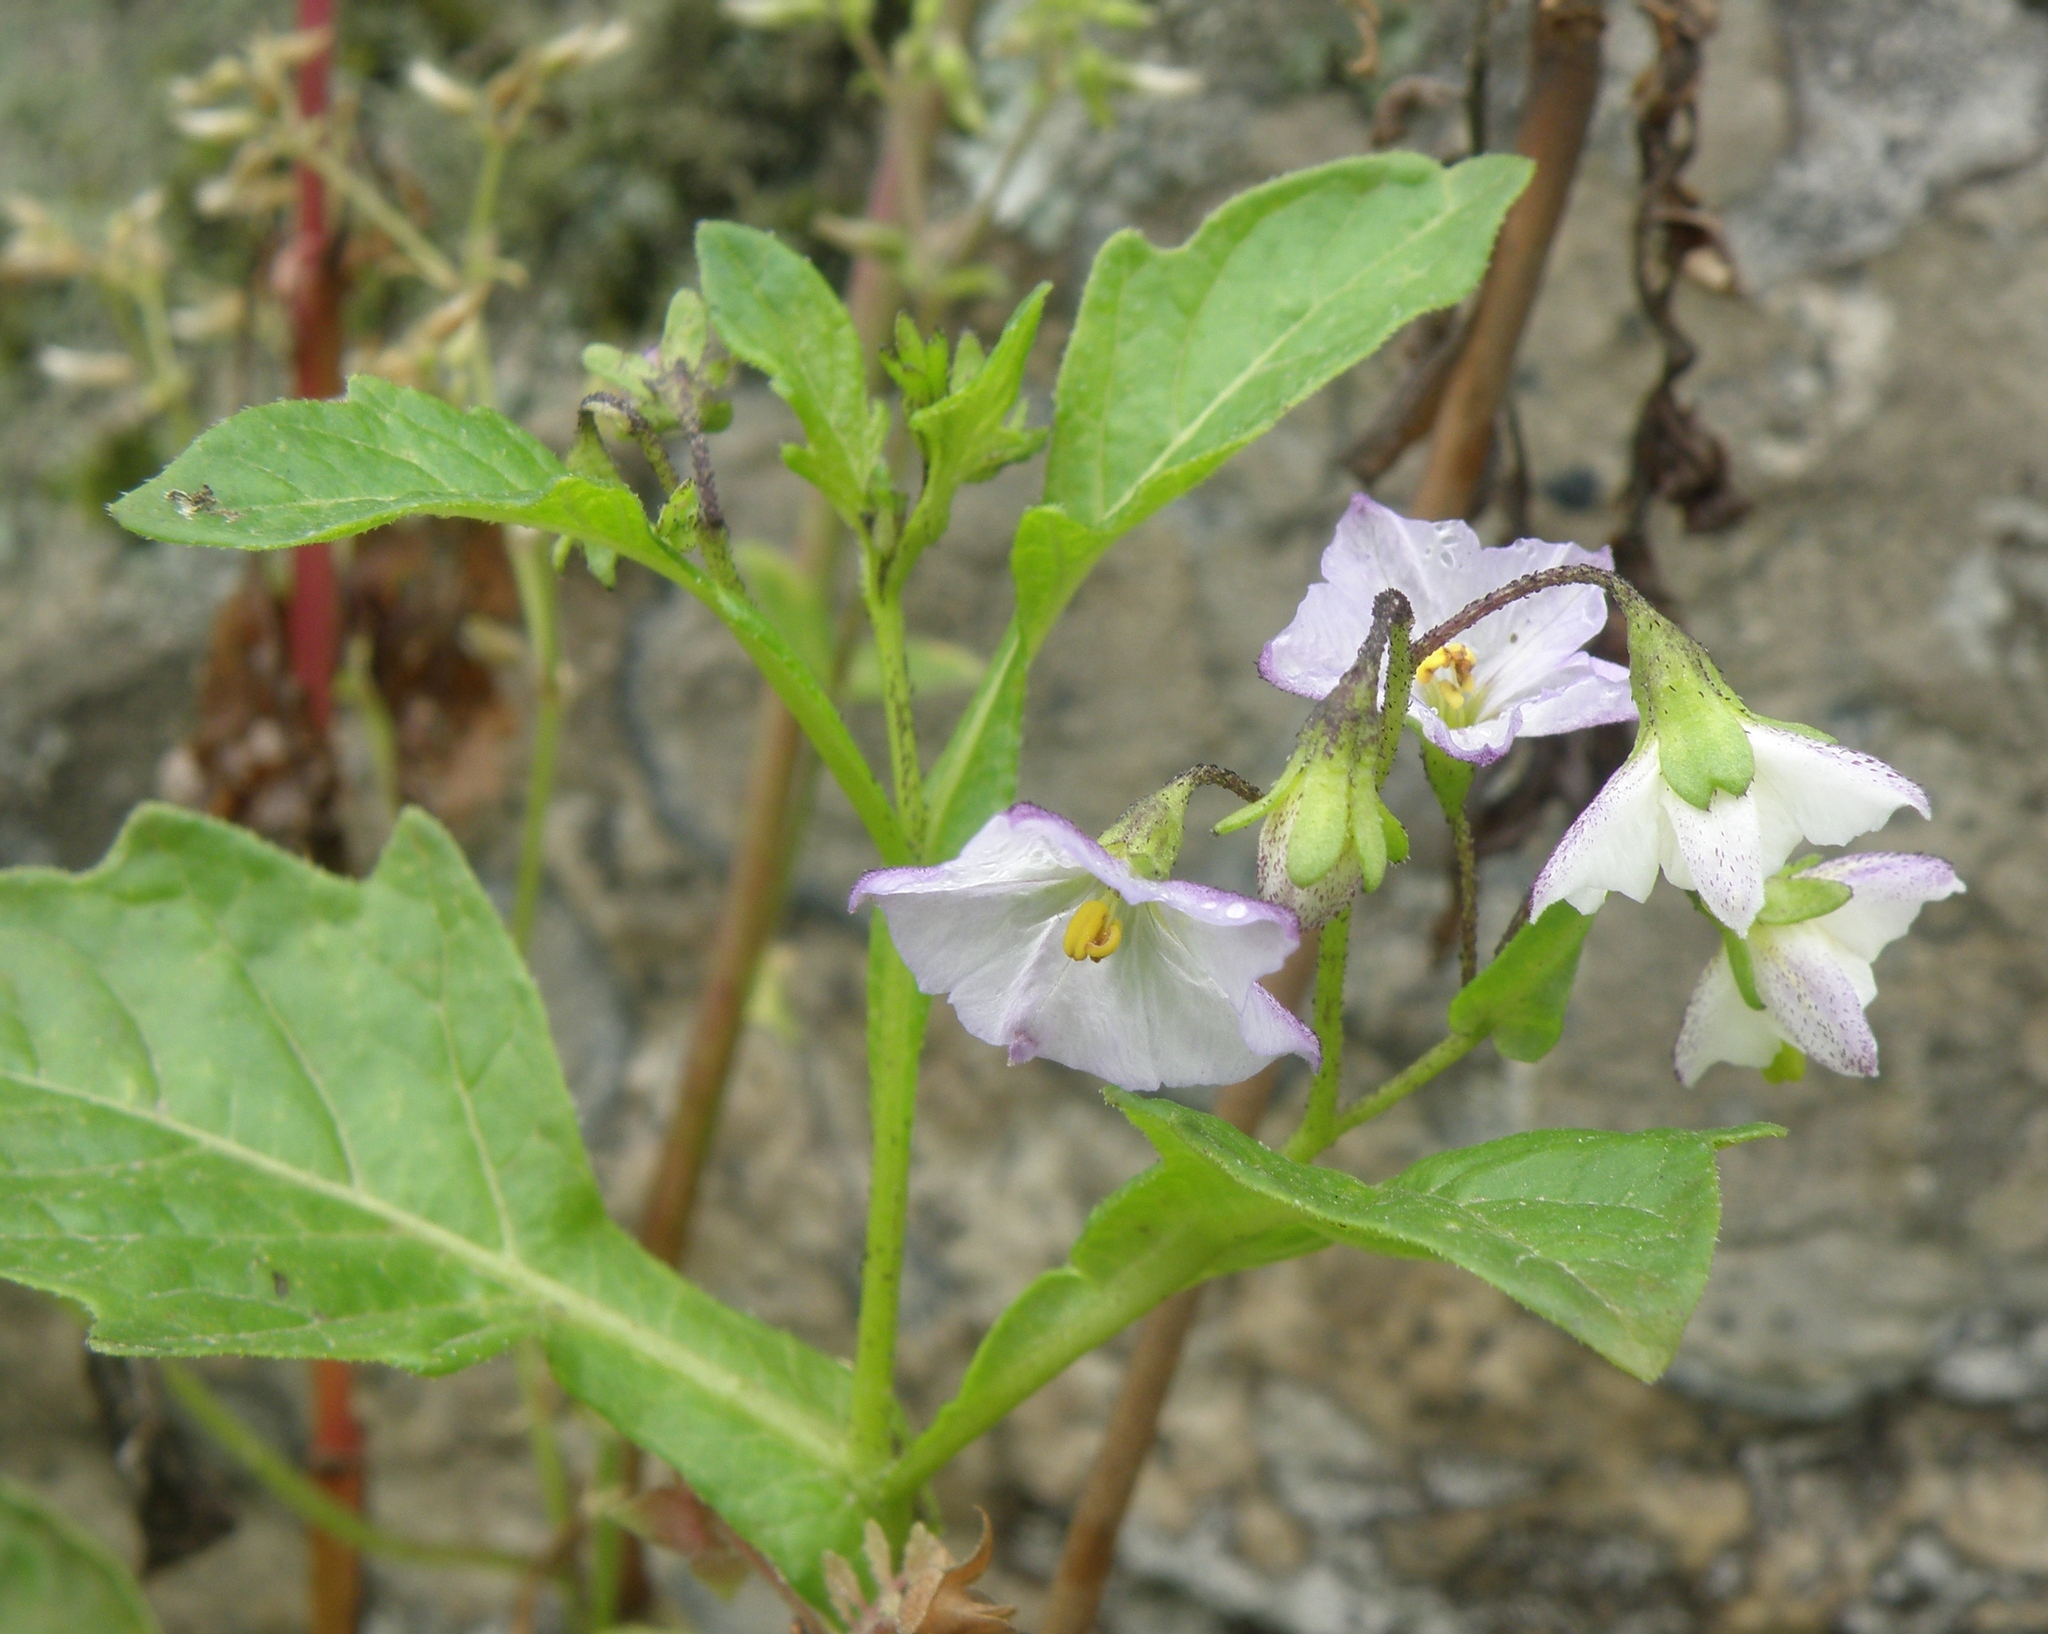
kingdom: Plantae
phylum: Tracheophyta
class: Magnoliopsida
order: Solanales
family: Solanaceae
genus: Solanum
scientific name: Solanum montanum
